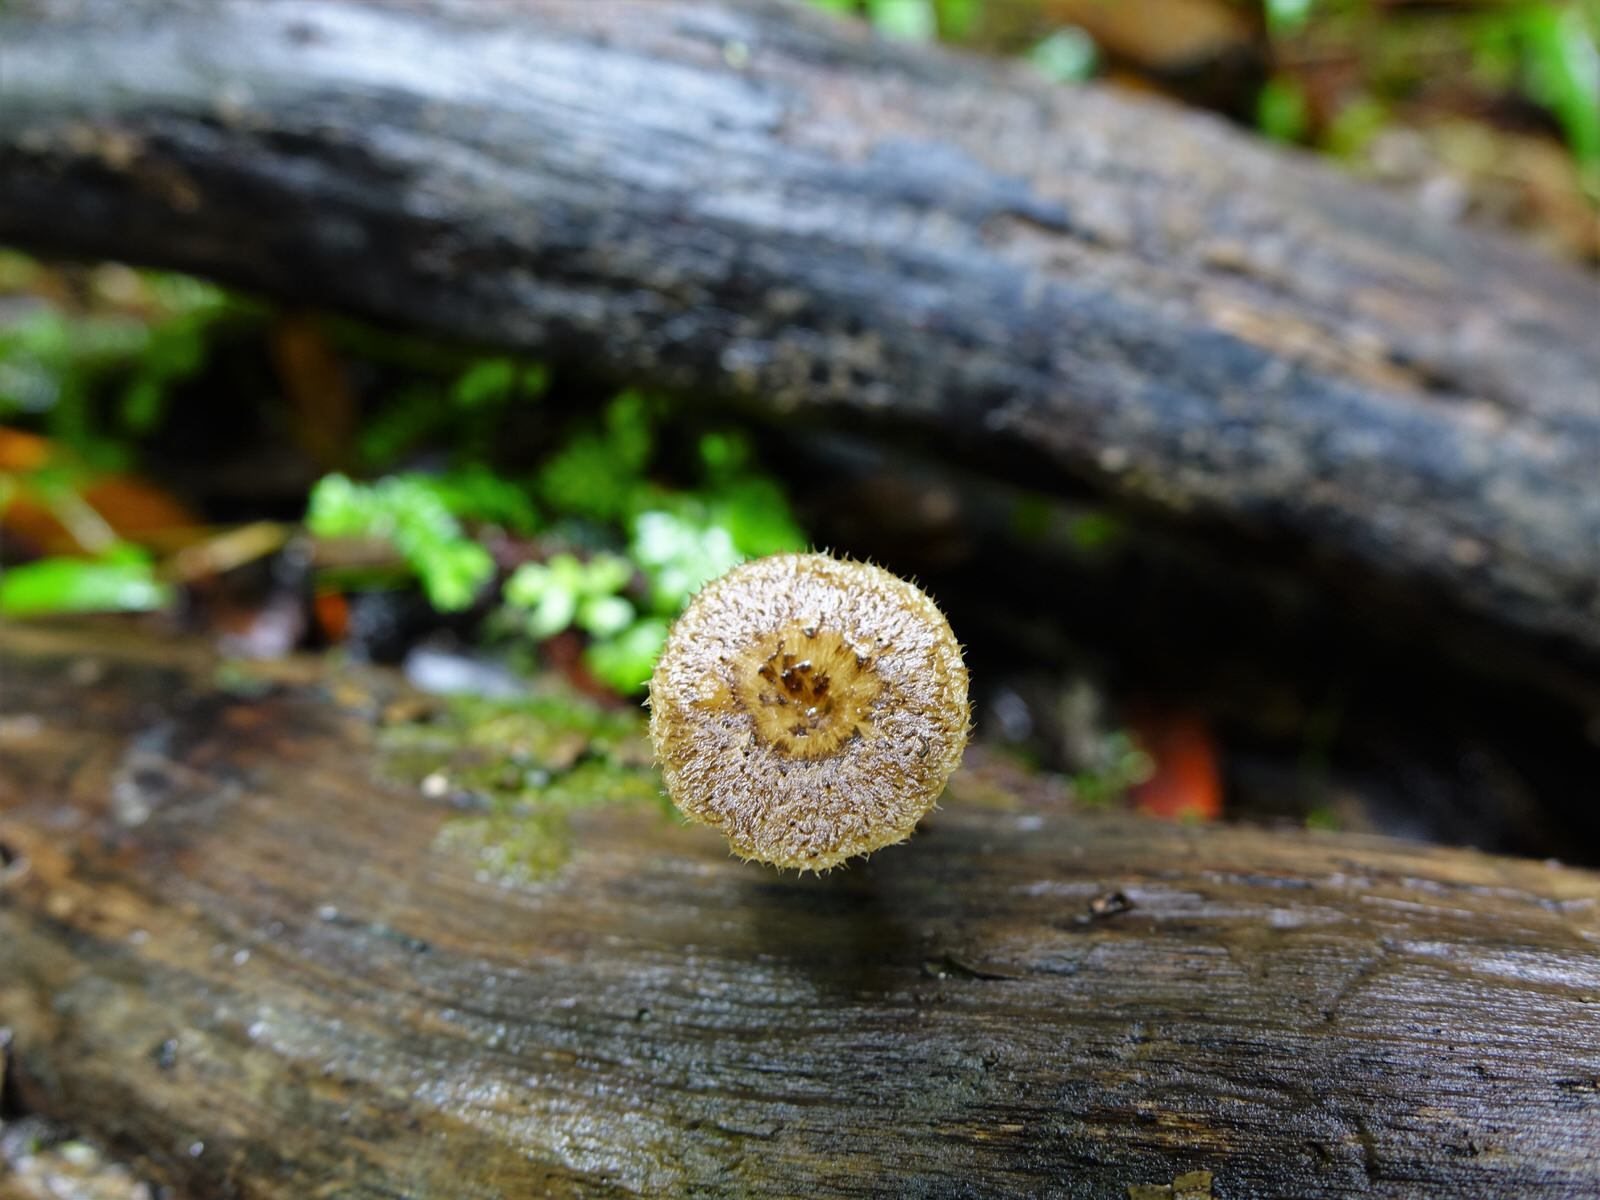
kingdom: Fungi
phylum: Basidiomycota
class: Agaricomycetes
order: Polyporales
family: Polyporaceae
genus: Lentinus
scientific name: Lentinus arcularius
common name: Spring polypore
